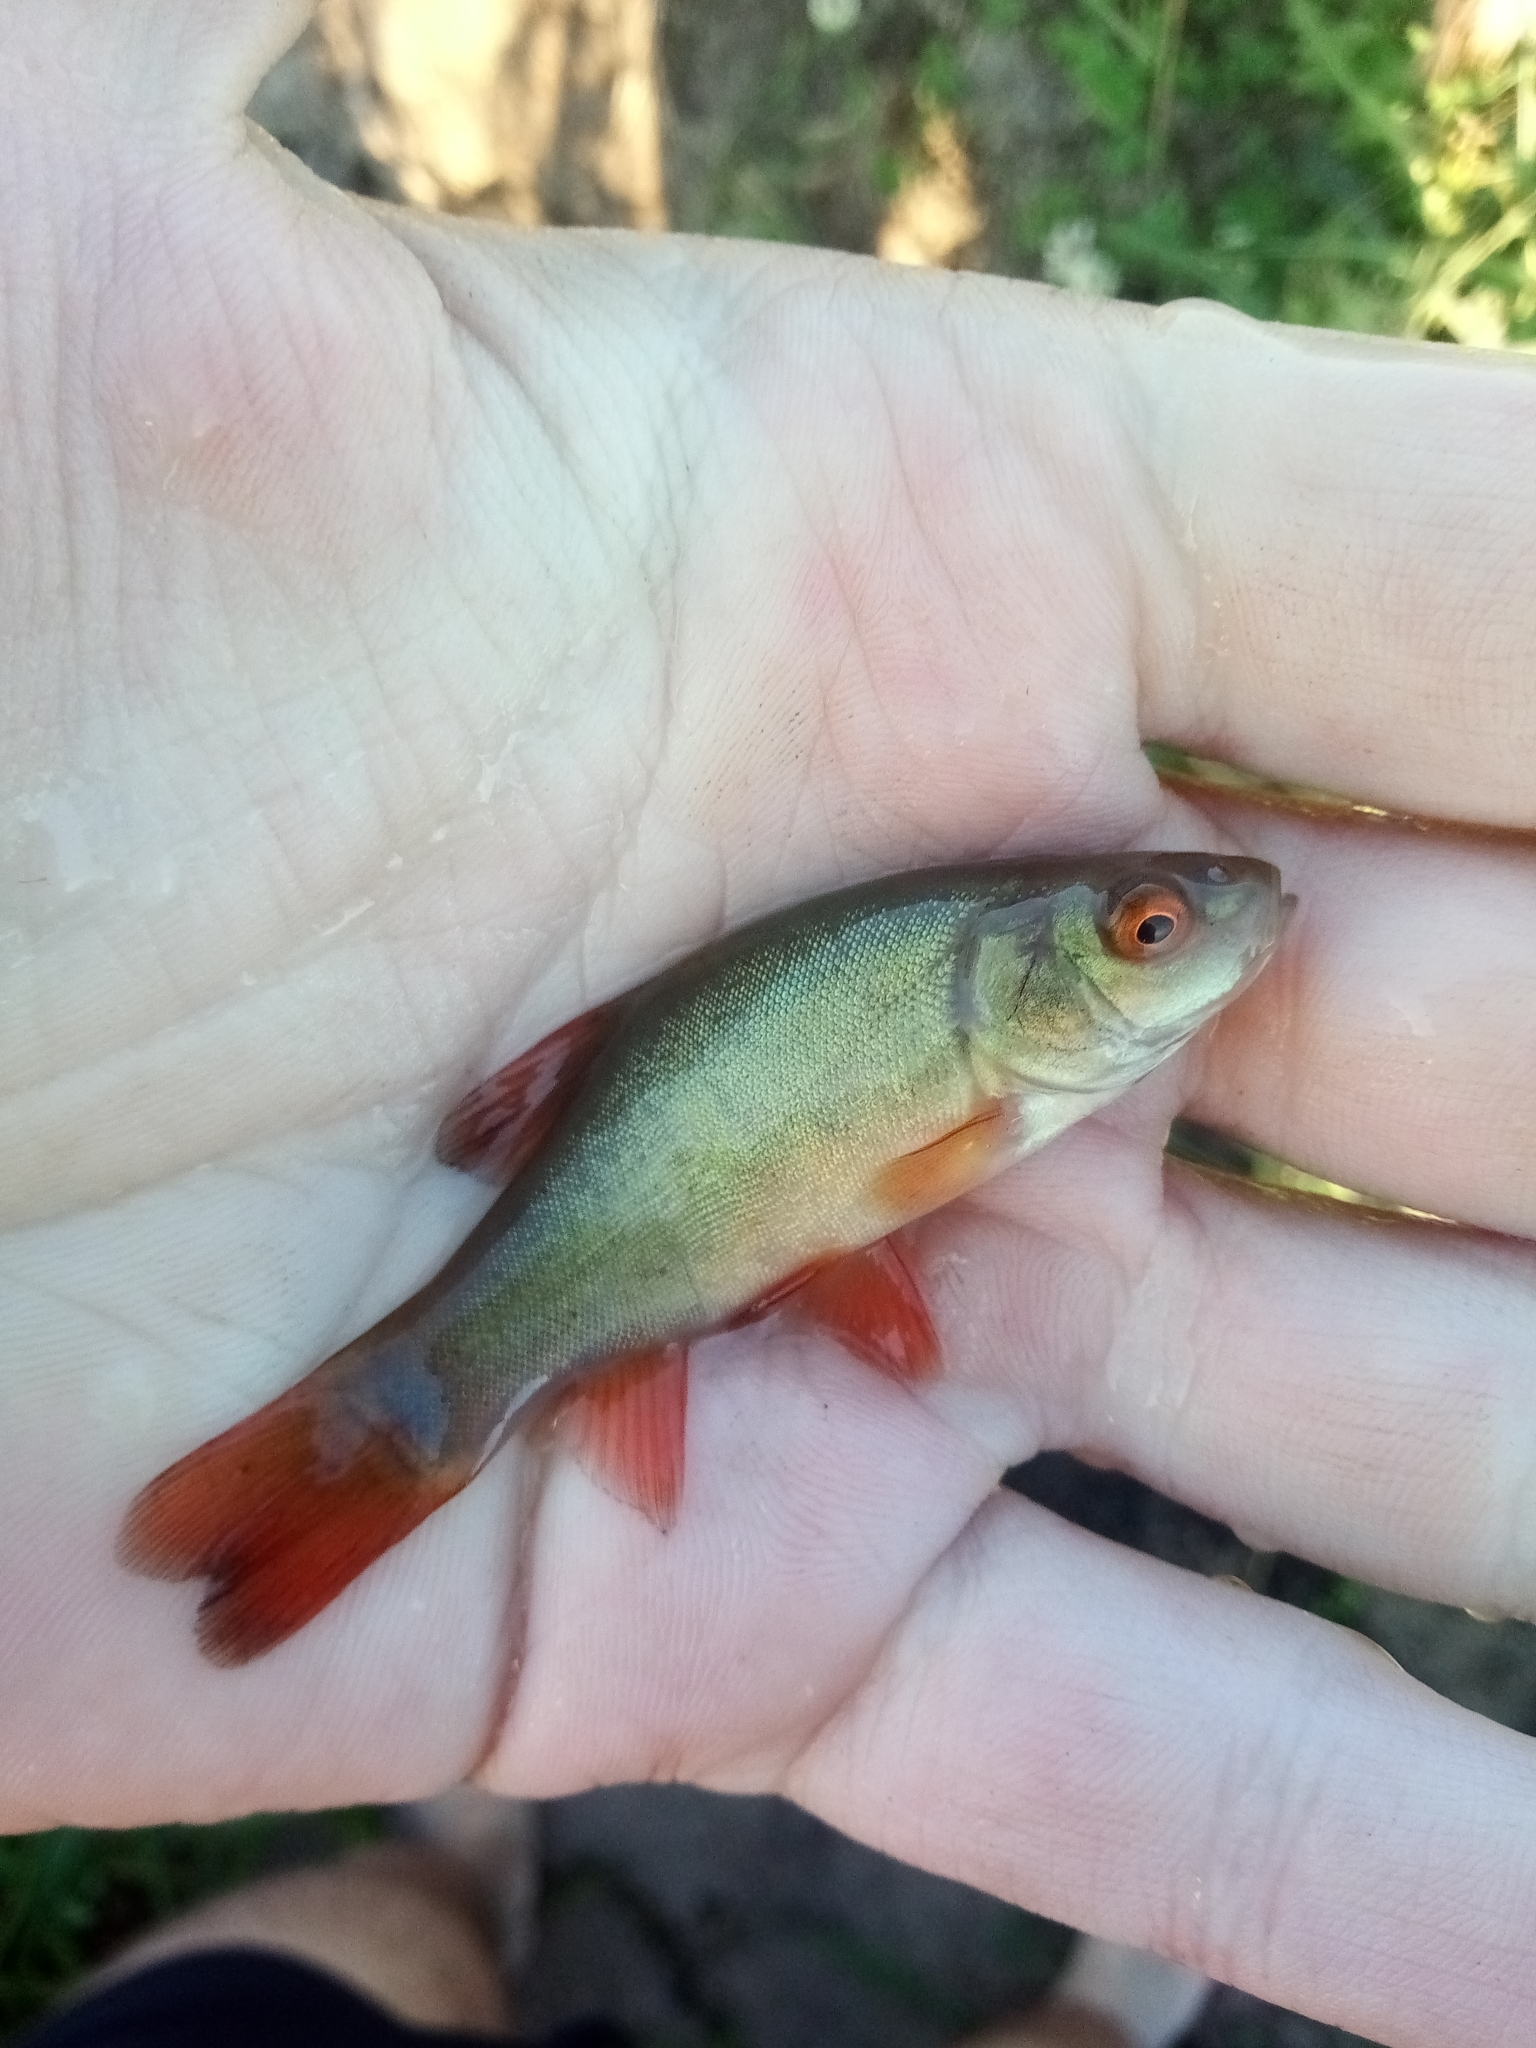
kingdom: Animalia
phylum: Chordata
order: Cypriniformes
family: Cyprinidae
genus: Tinca
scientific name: Tinca tinca
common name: Tench
